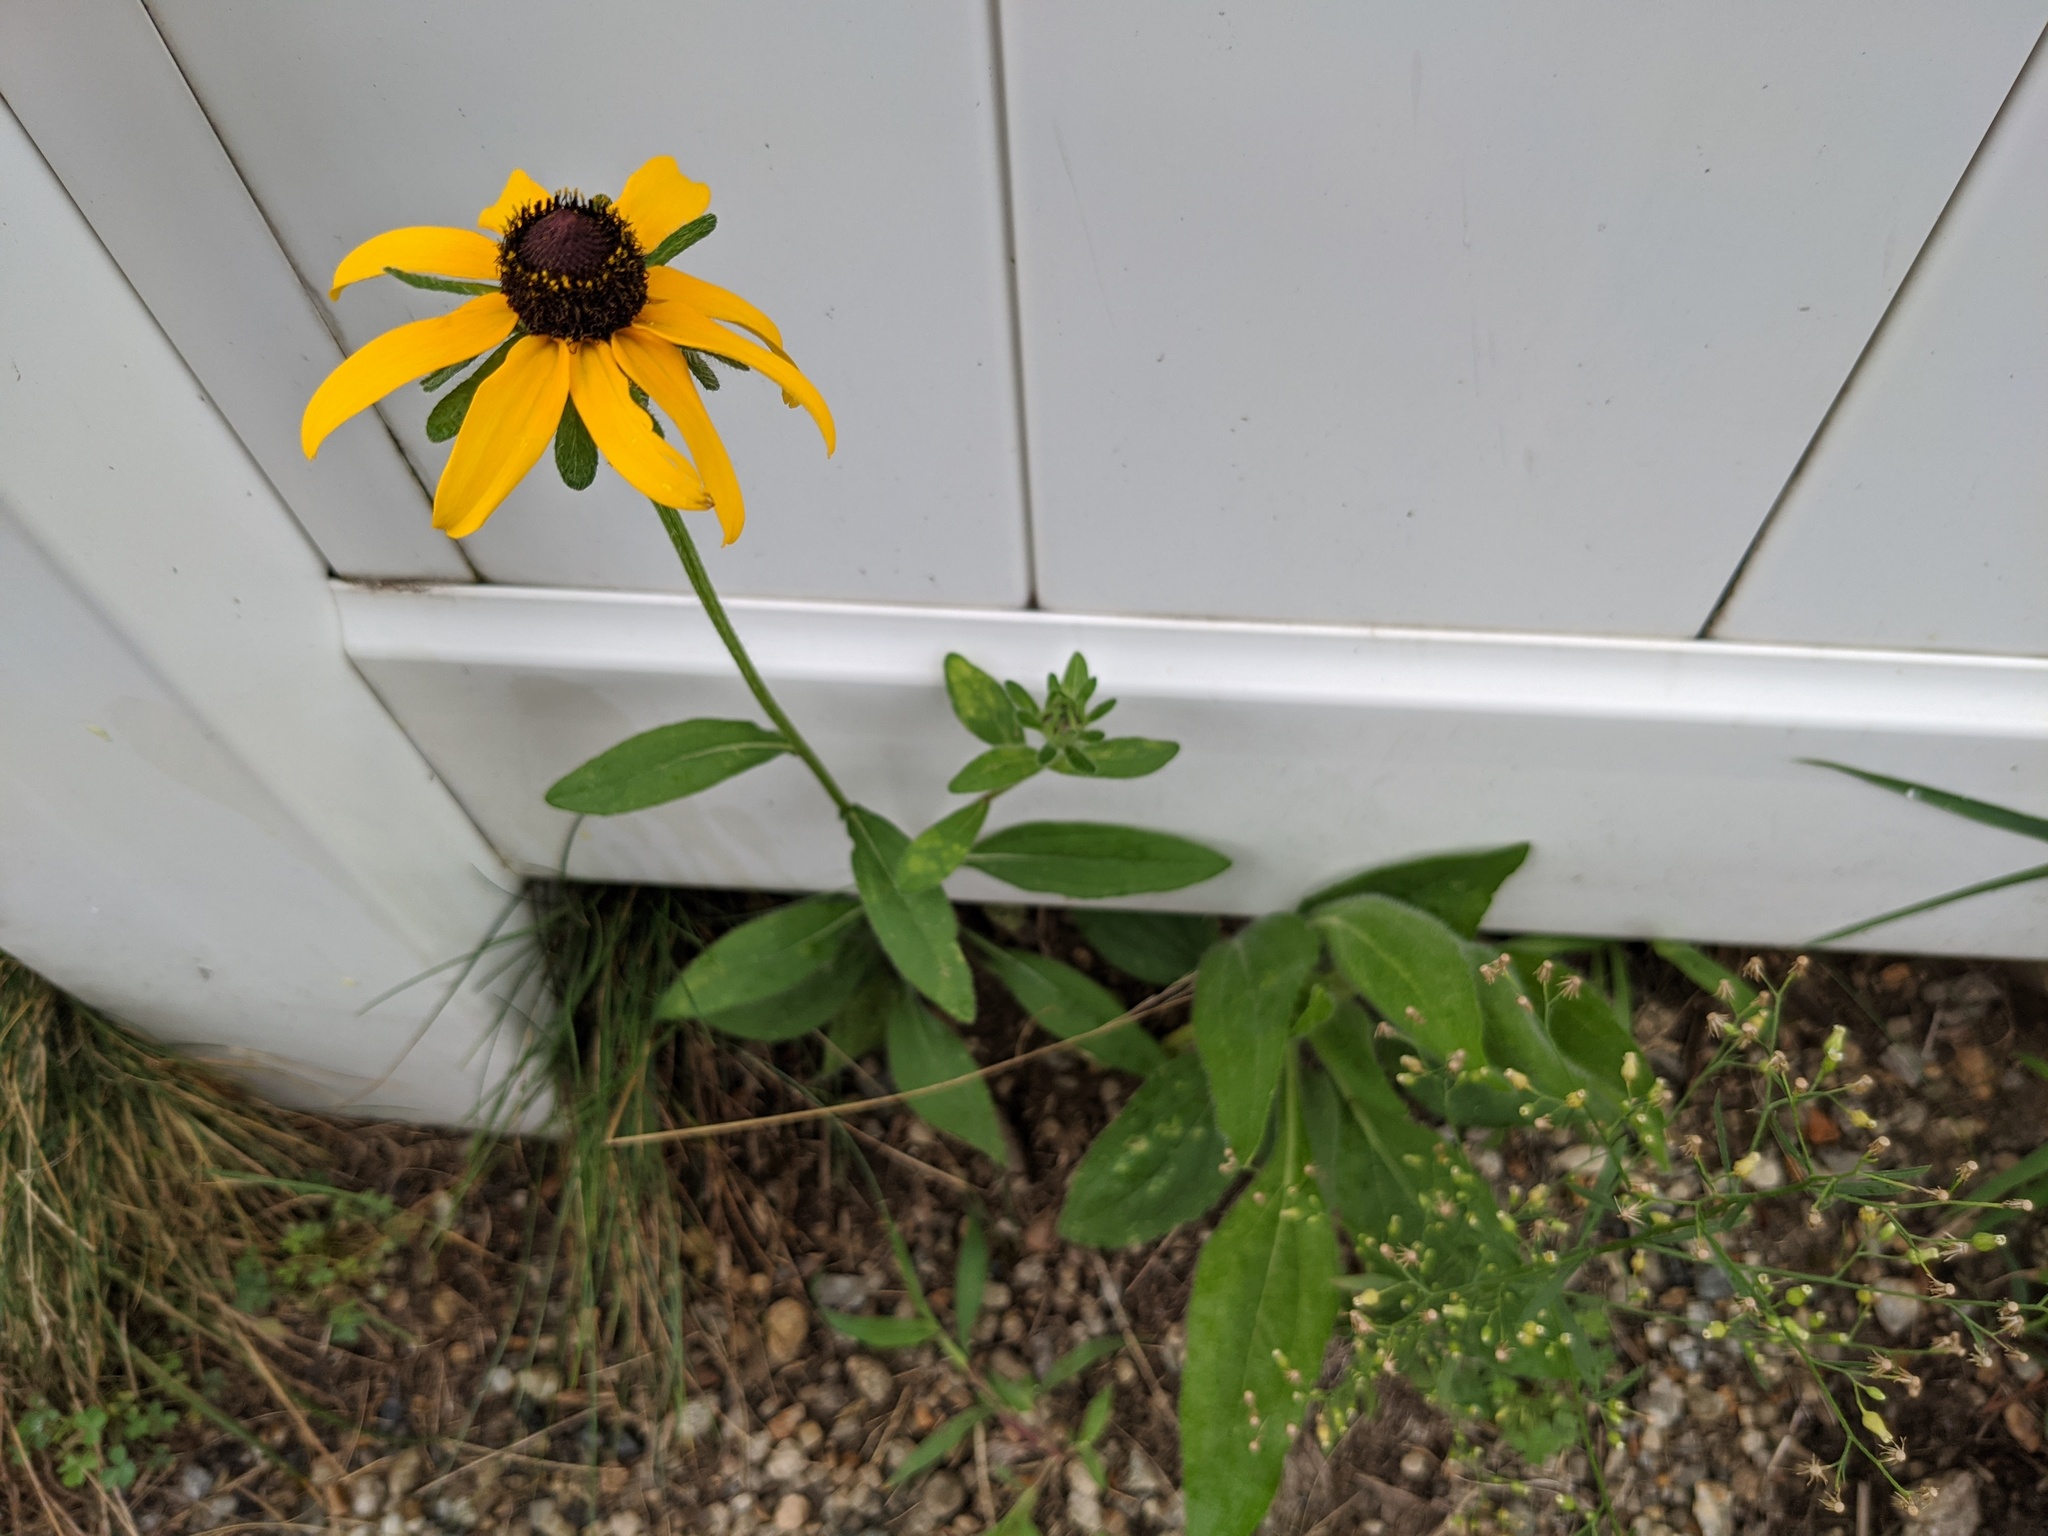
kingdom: Plantae
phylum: Tracheophyta
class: Magnoliopsida
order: Asterales
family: Asteraceae
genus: Rudbeckia
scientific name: Rudbeckia hirta
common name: Black-eyed-susan
